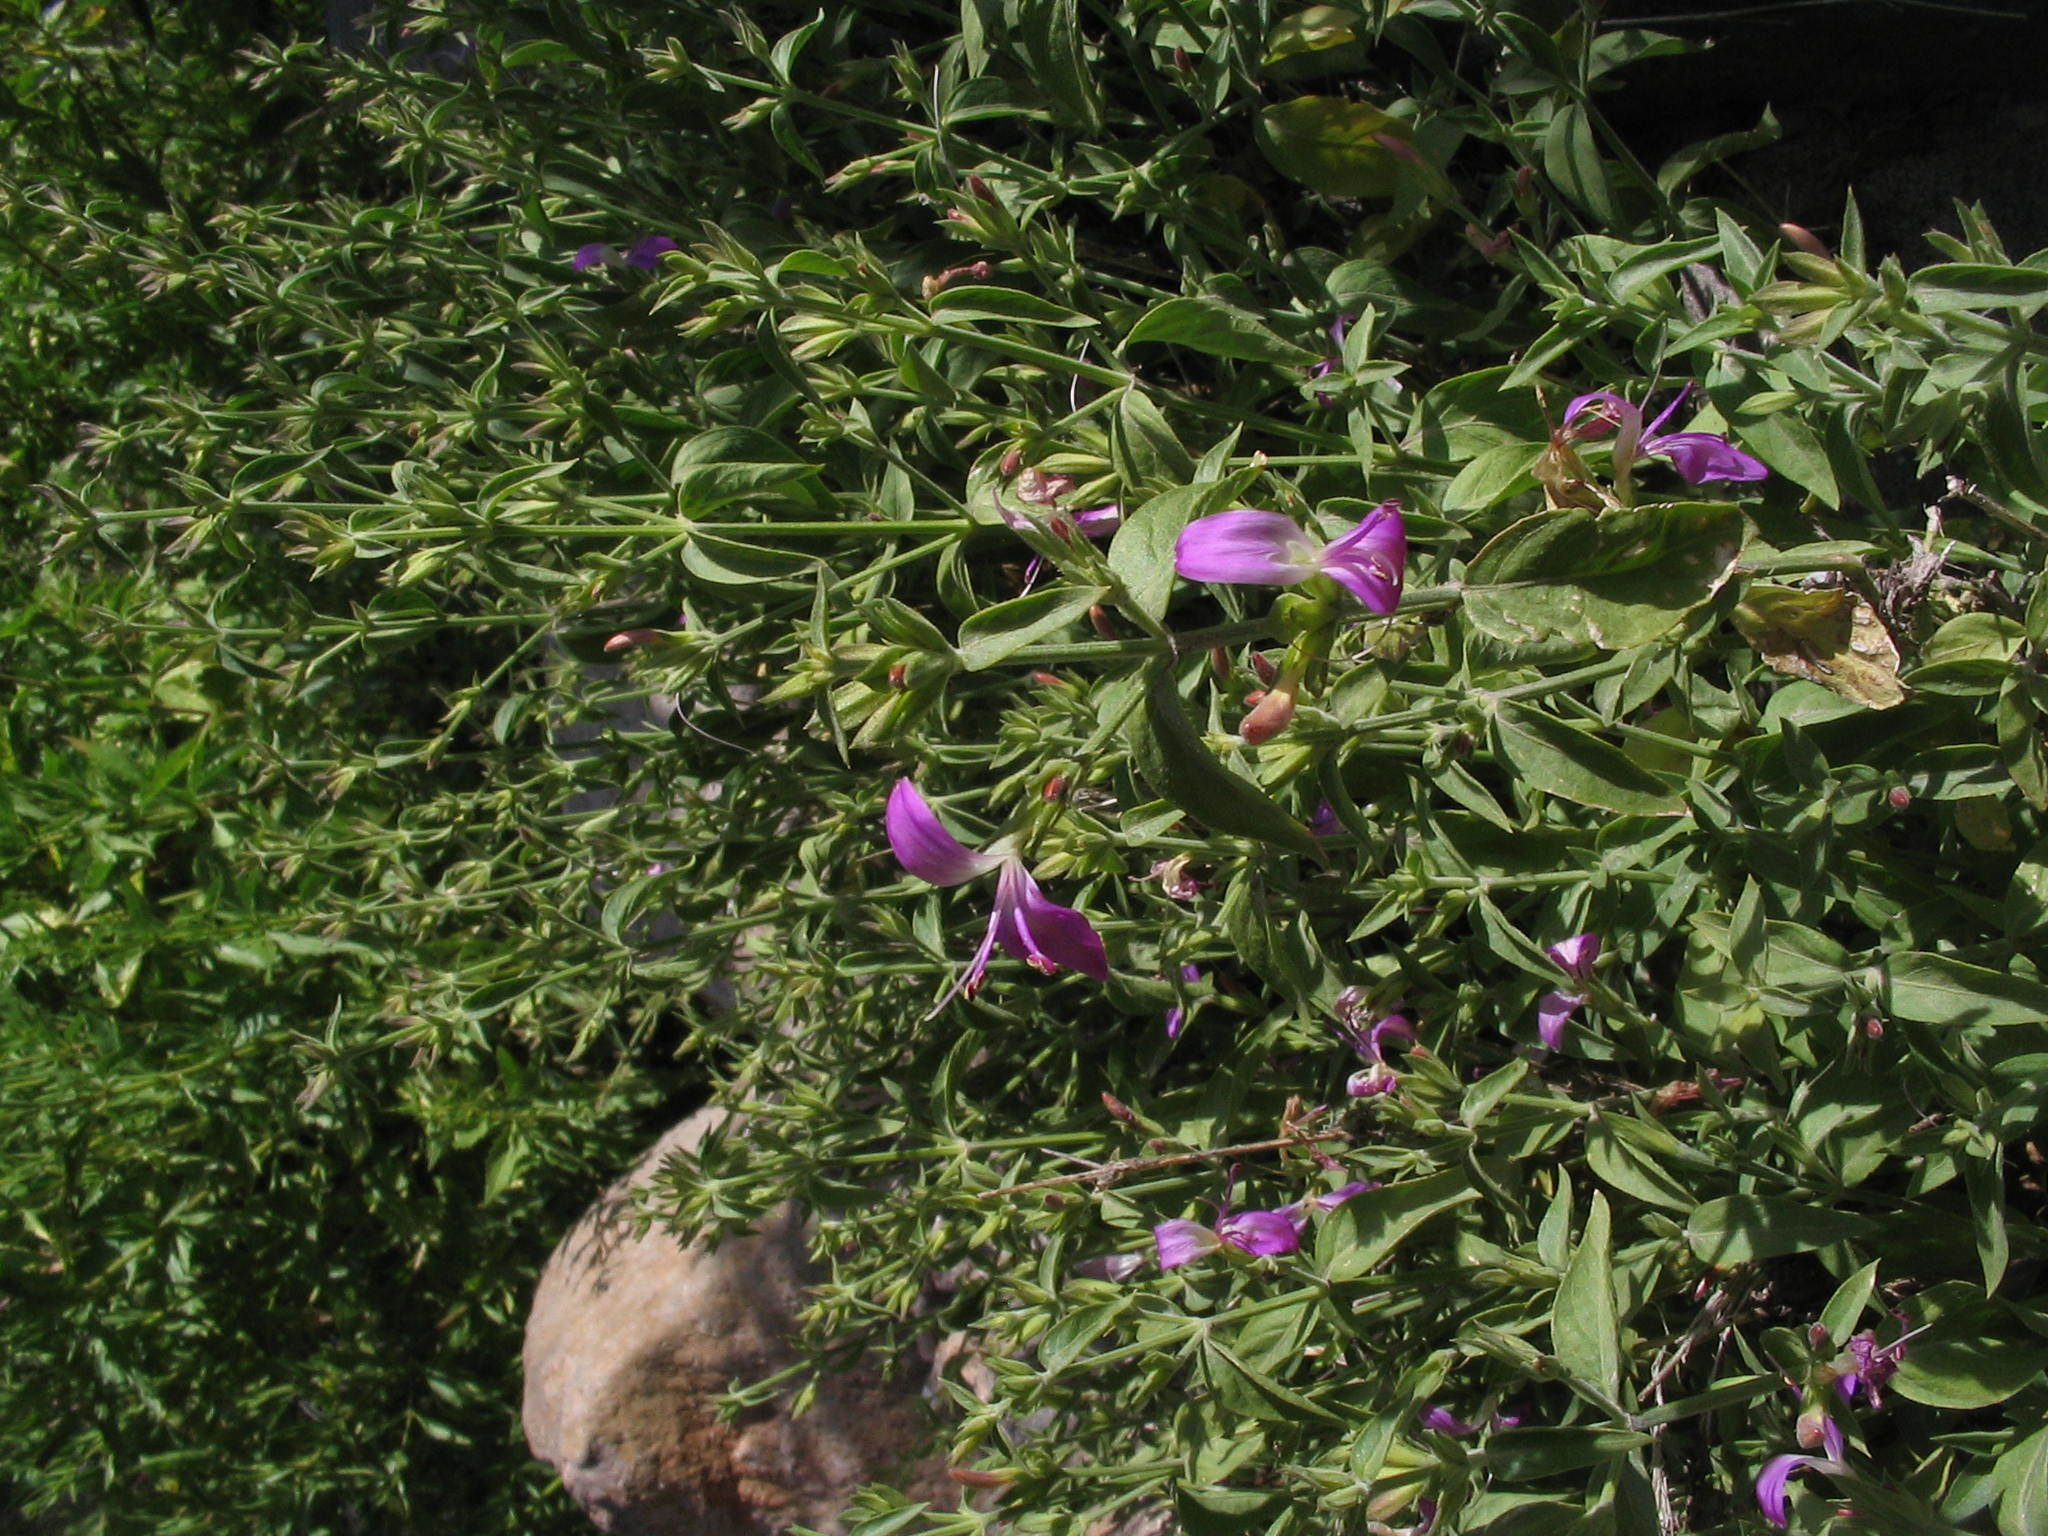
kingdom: Plantae
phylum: Tracheophyta
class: Magnoliopsida
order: Lamiales
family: Acanthaceae
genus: Dicliptera
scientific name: Dicliptera tomentosa
